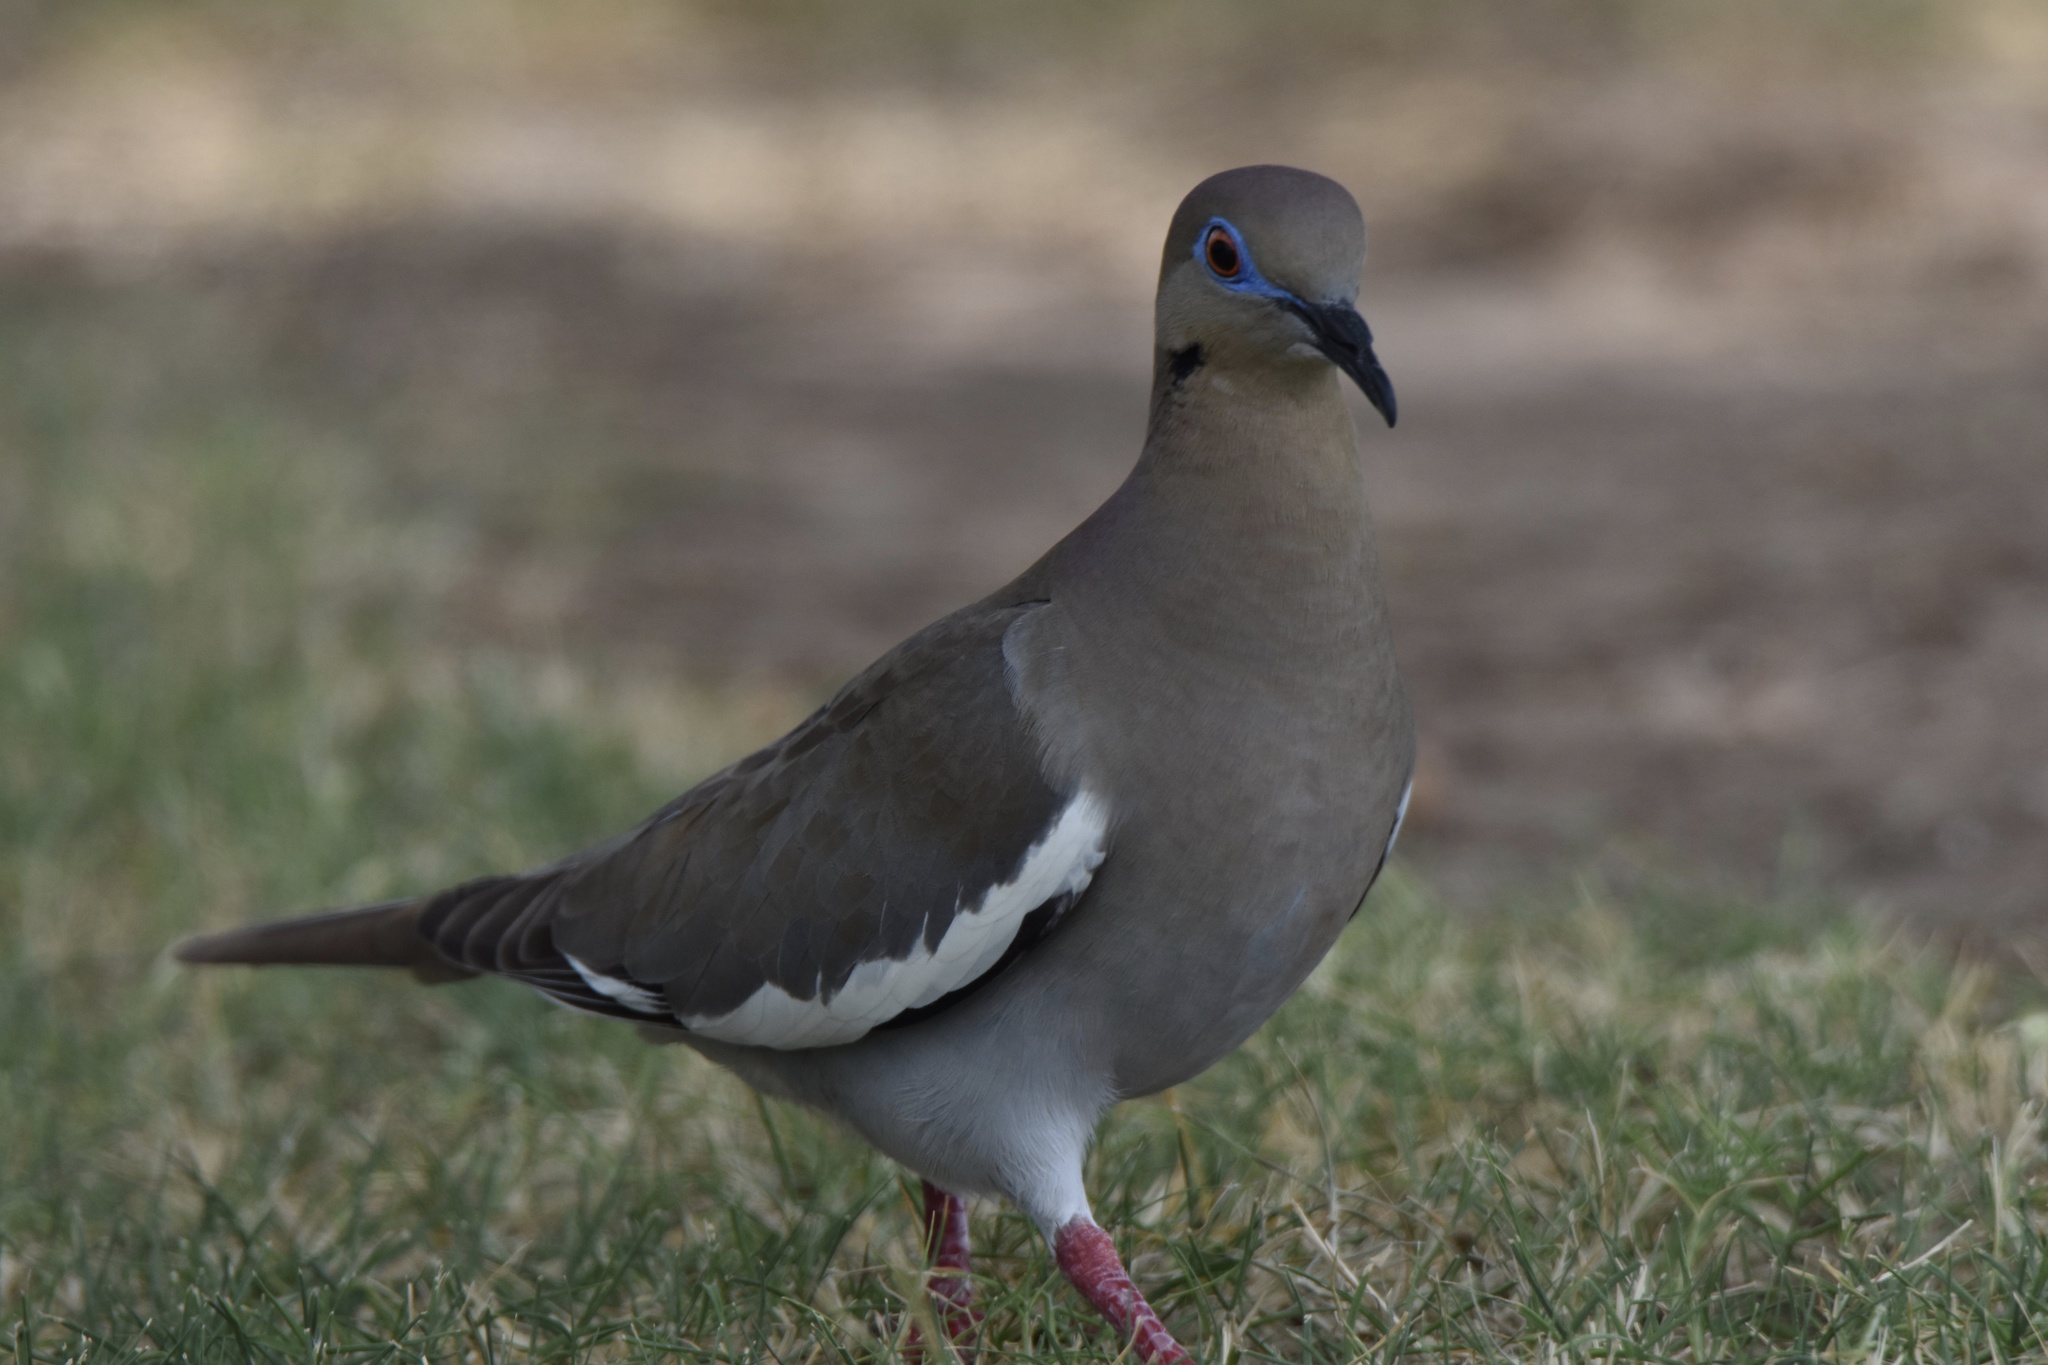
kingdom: Animalia
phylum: Chordata
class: Aves
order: Columbiformes
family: Columbidae
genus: Zenaida
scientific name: Zenaida asiatica
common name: White-winged dove
